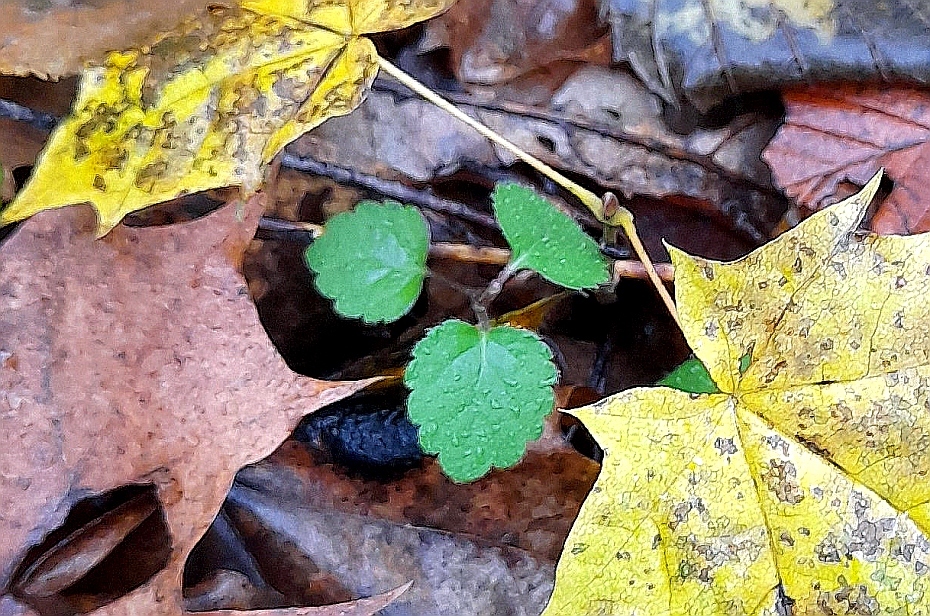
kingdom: Plantae
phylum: Tracheophyta
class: Magnoliopsida
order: Lamiales
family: Lamiaceae
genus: Lamium
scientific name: Lamium galeobdolon
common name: Yellow archangel
